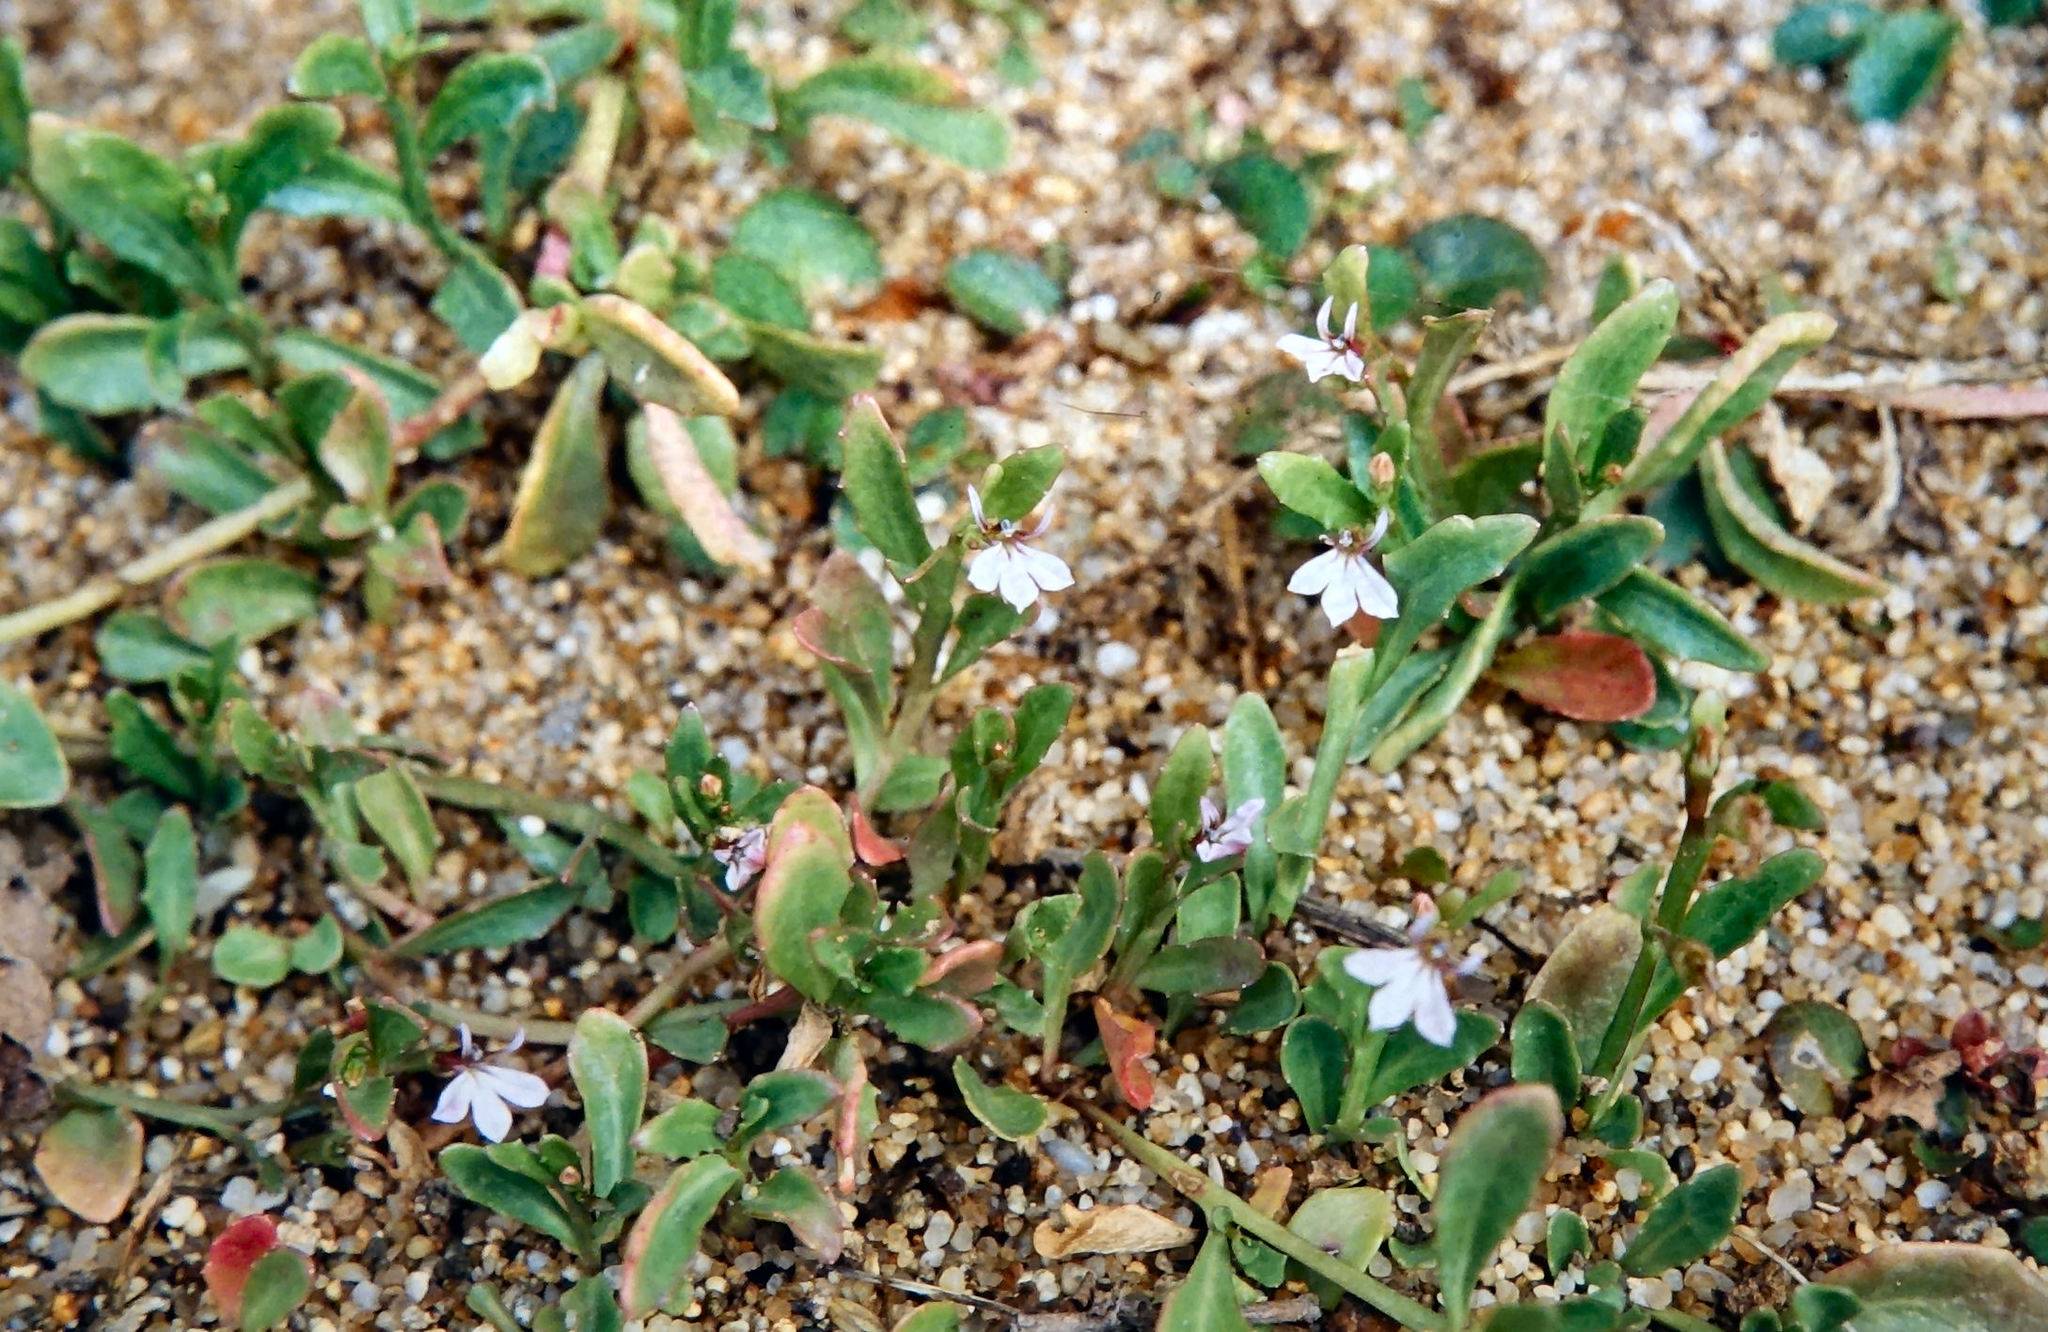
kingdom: Plantae
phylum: Tracheophyta
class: Magnoliopsida
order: Asterales
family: Campanulaceae
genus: Lobelia
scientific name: Lobelia anceps
